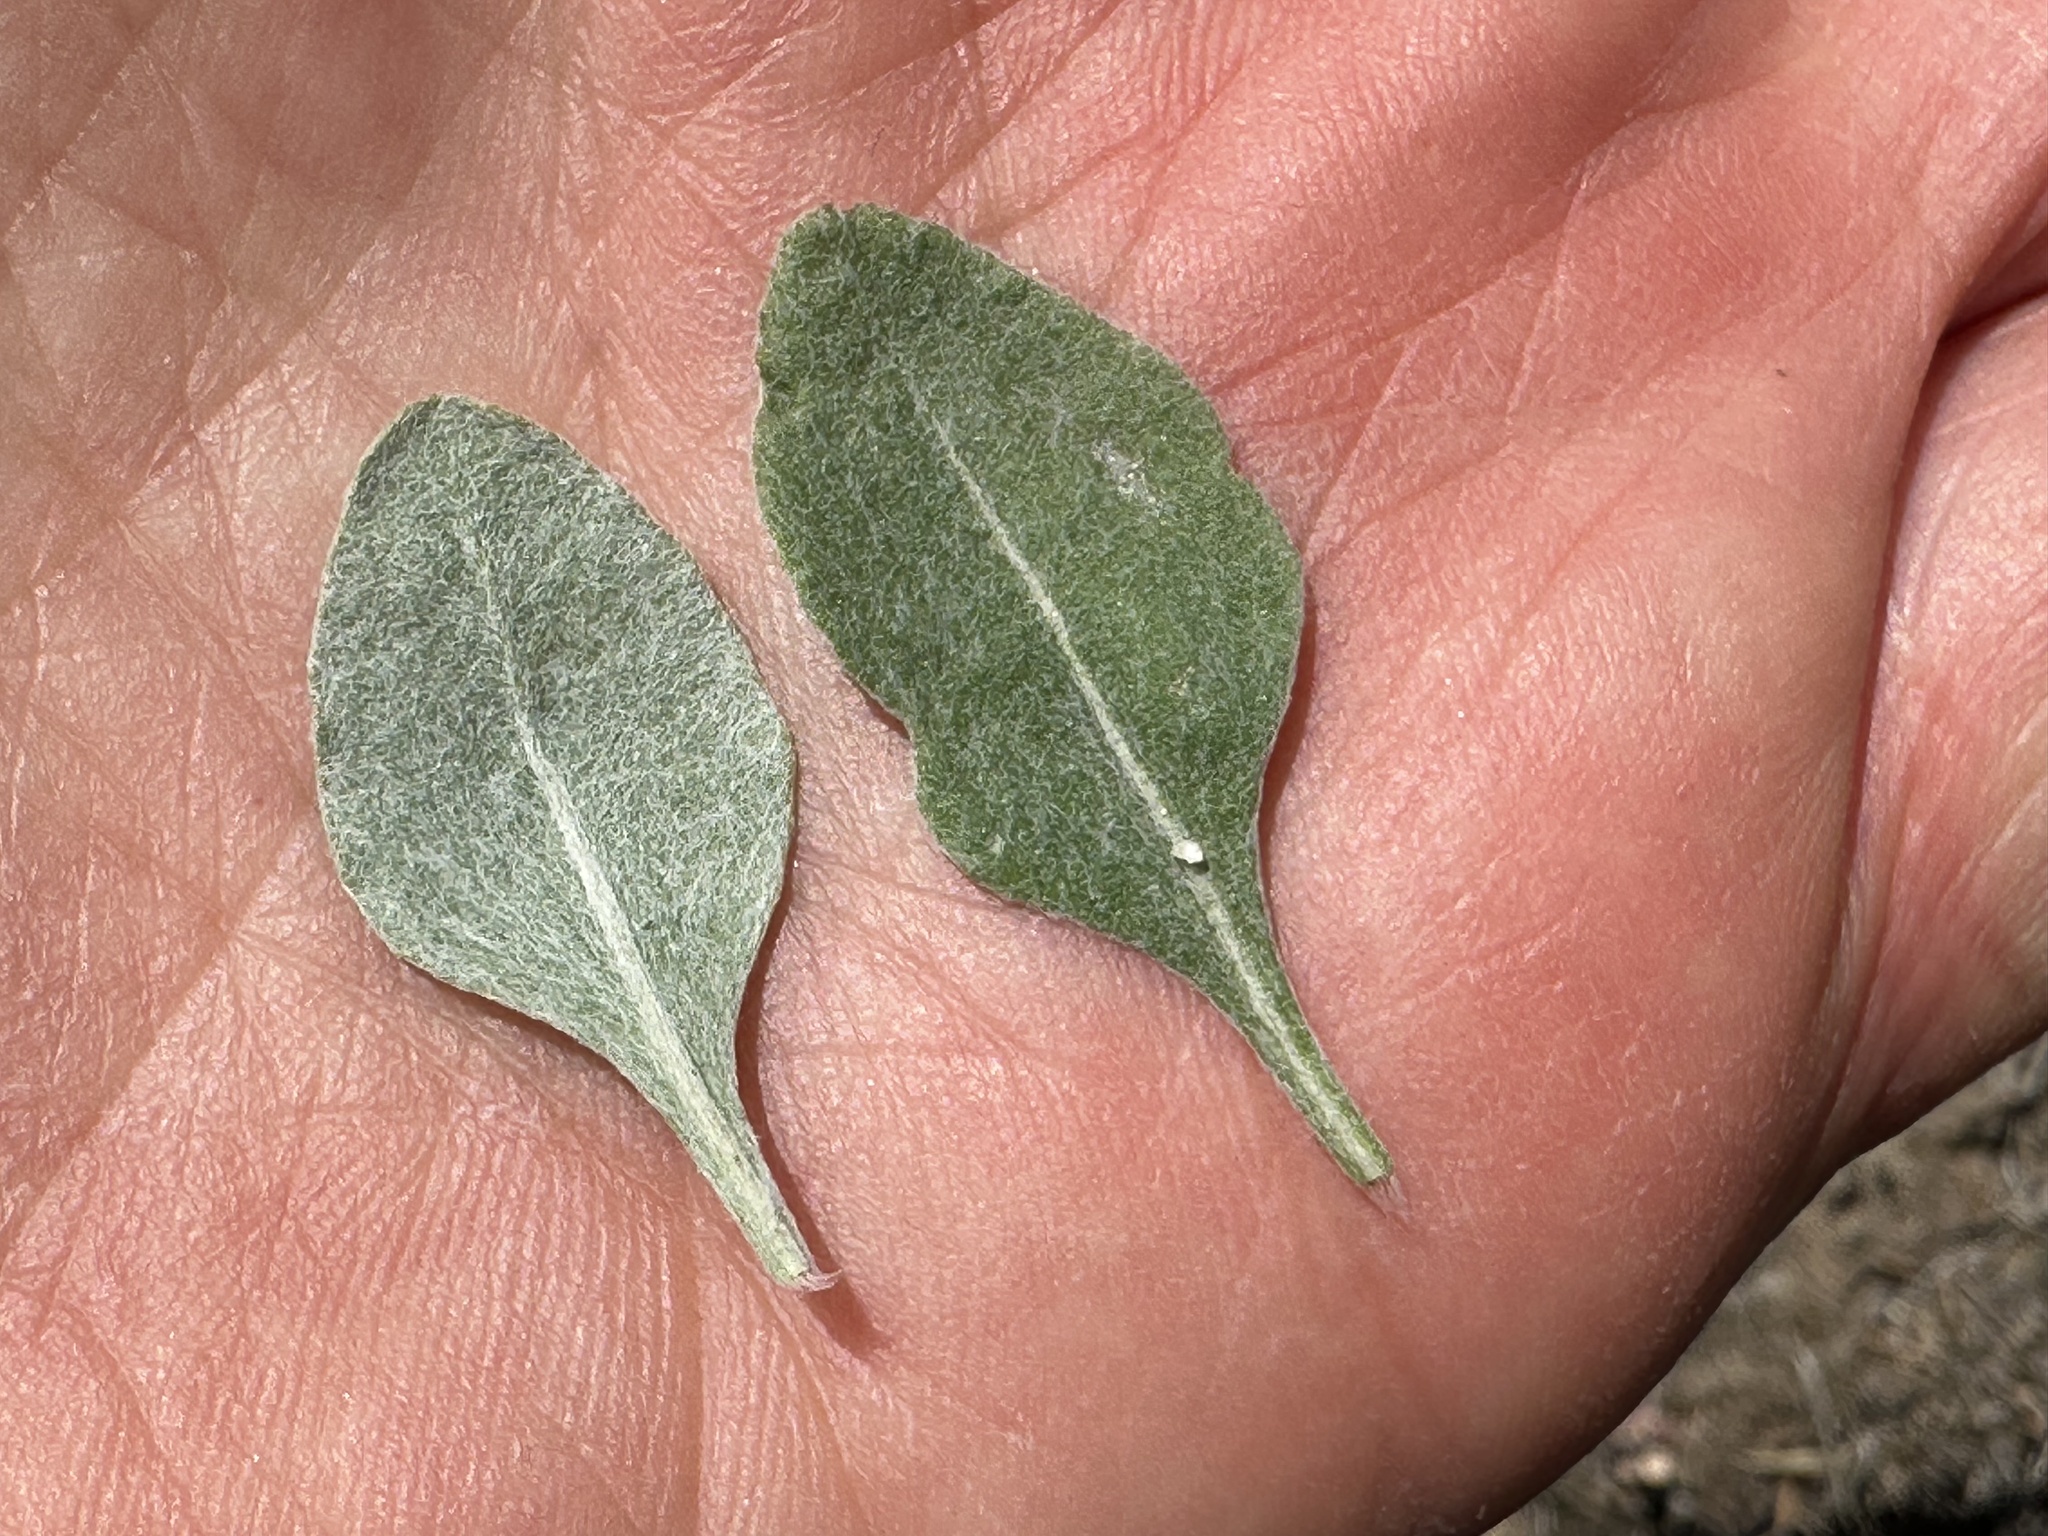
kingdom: Plantae
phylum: Tracheophyta
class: Magnoliopsida
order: Caryophyllales
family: Polygonaceae
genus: Eriogonum
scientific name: Eriogonum strictum
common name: Blue mountain buckwheat
